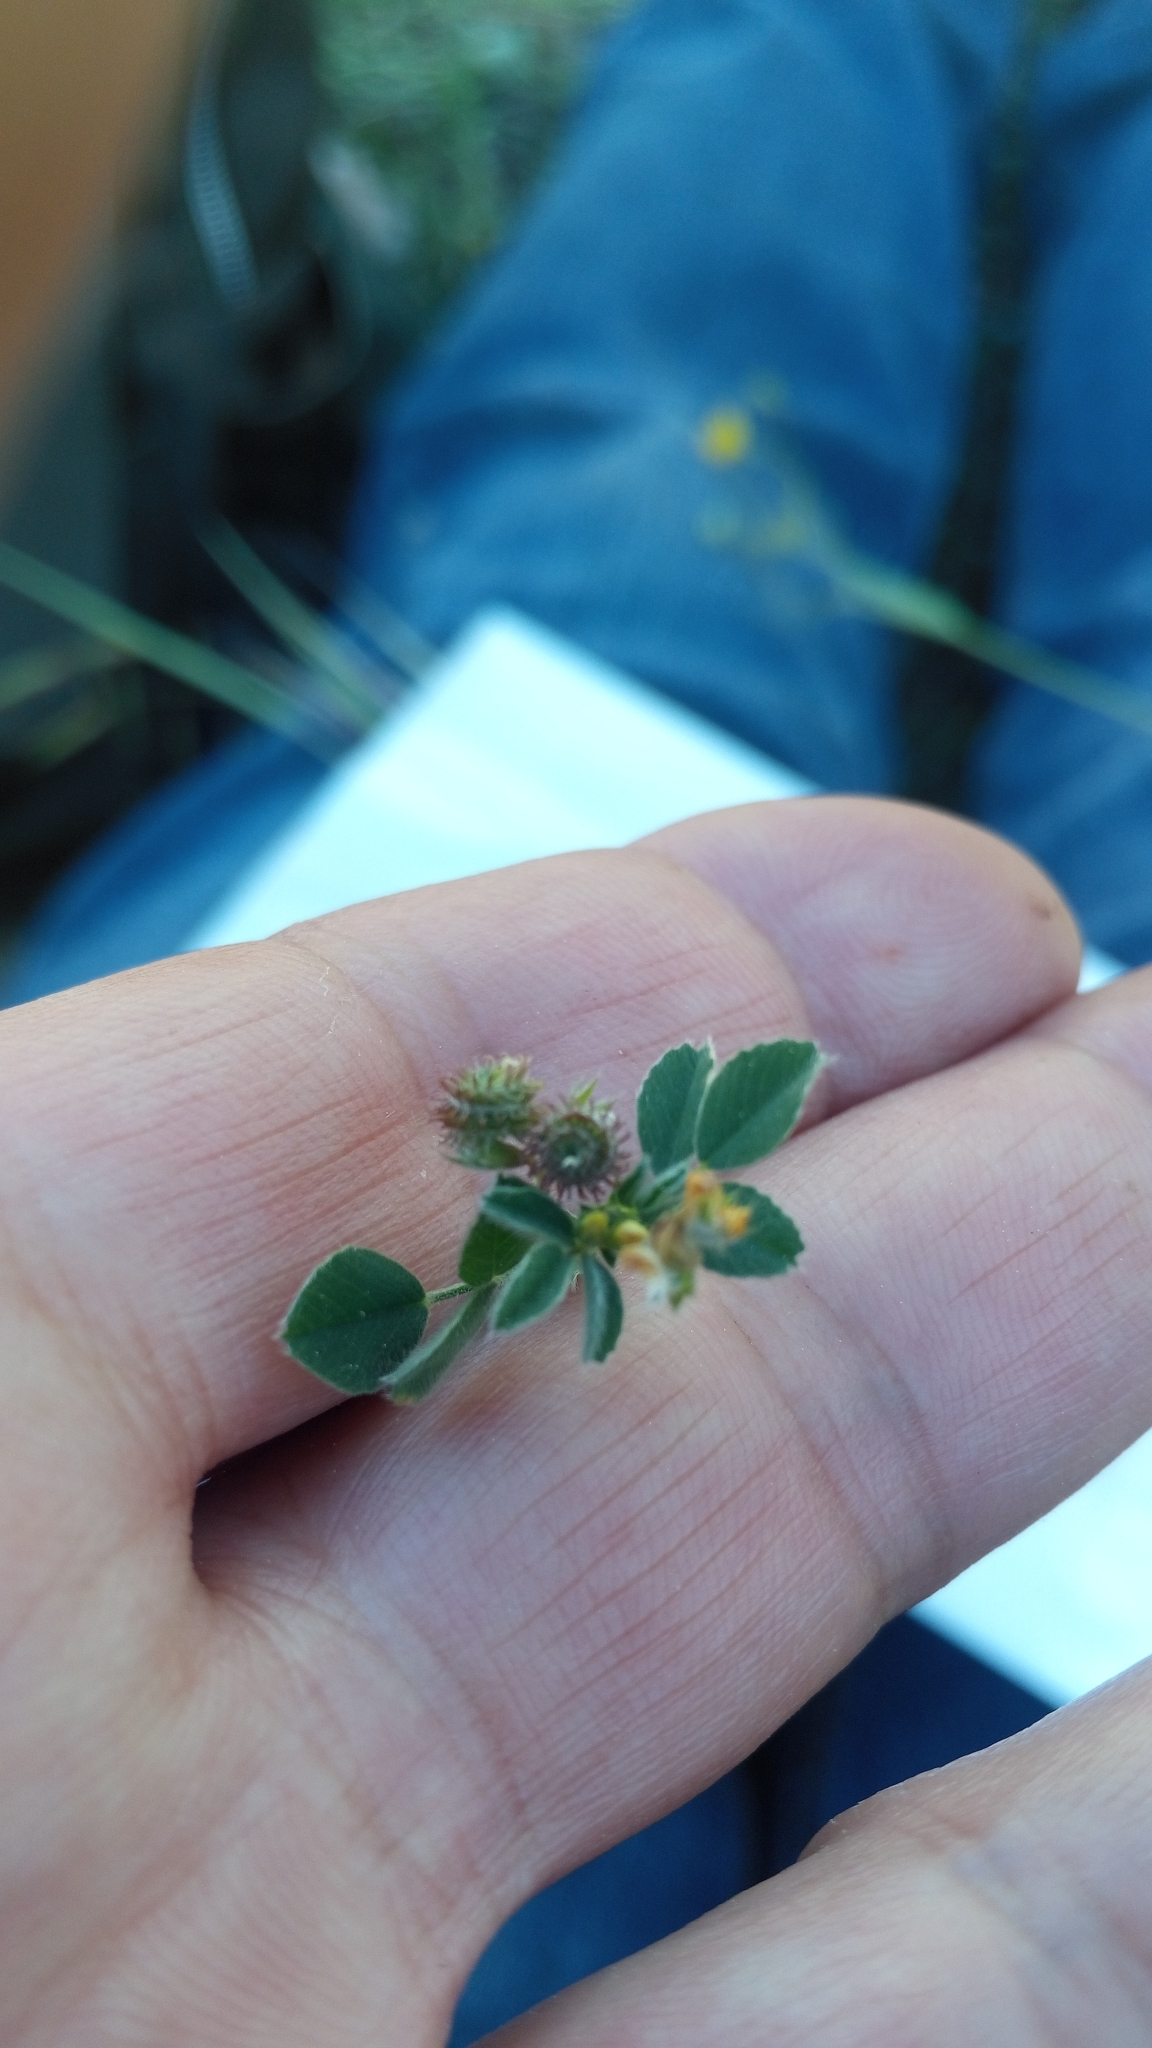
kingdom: Plantae
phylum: Tracheophyta
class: Magnoliopsida
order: Fabales
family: Fabaceae
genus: Medicago
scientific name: Medicago polymorpha
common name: Burclover
